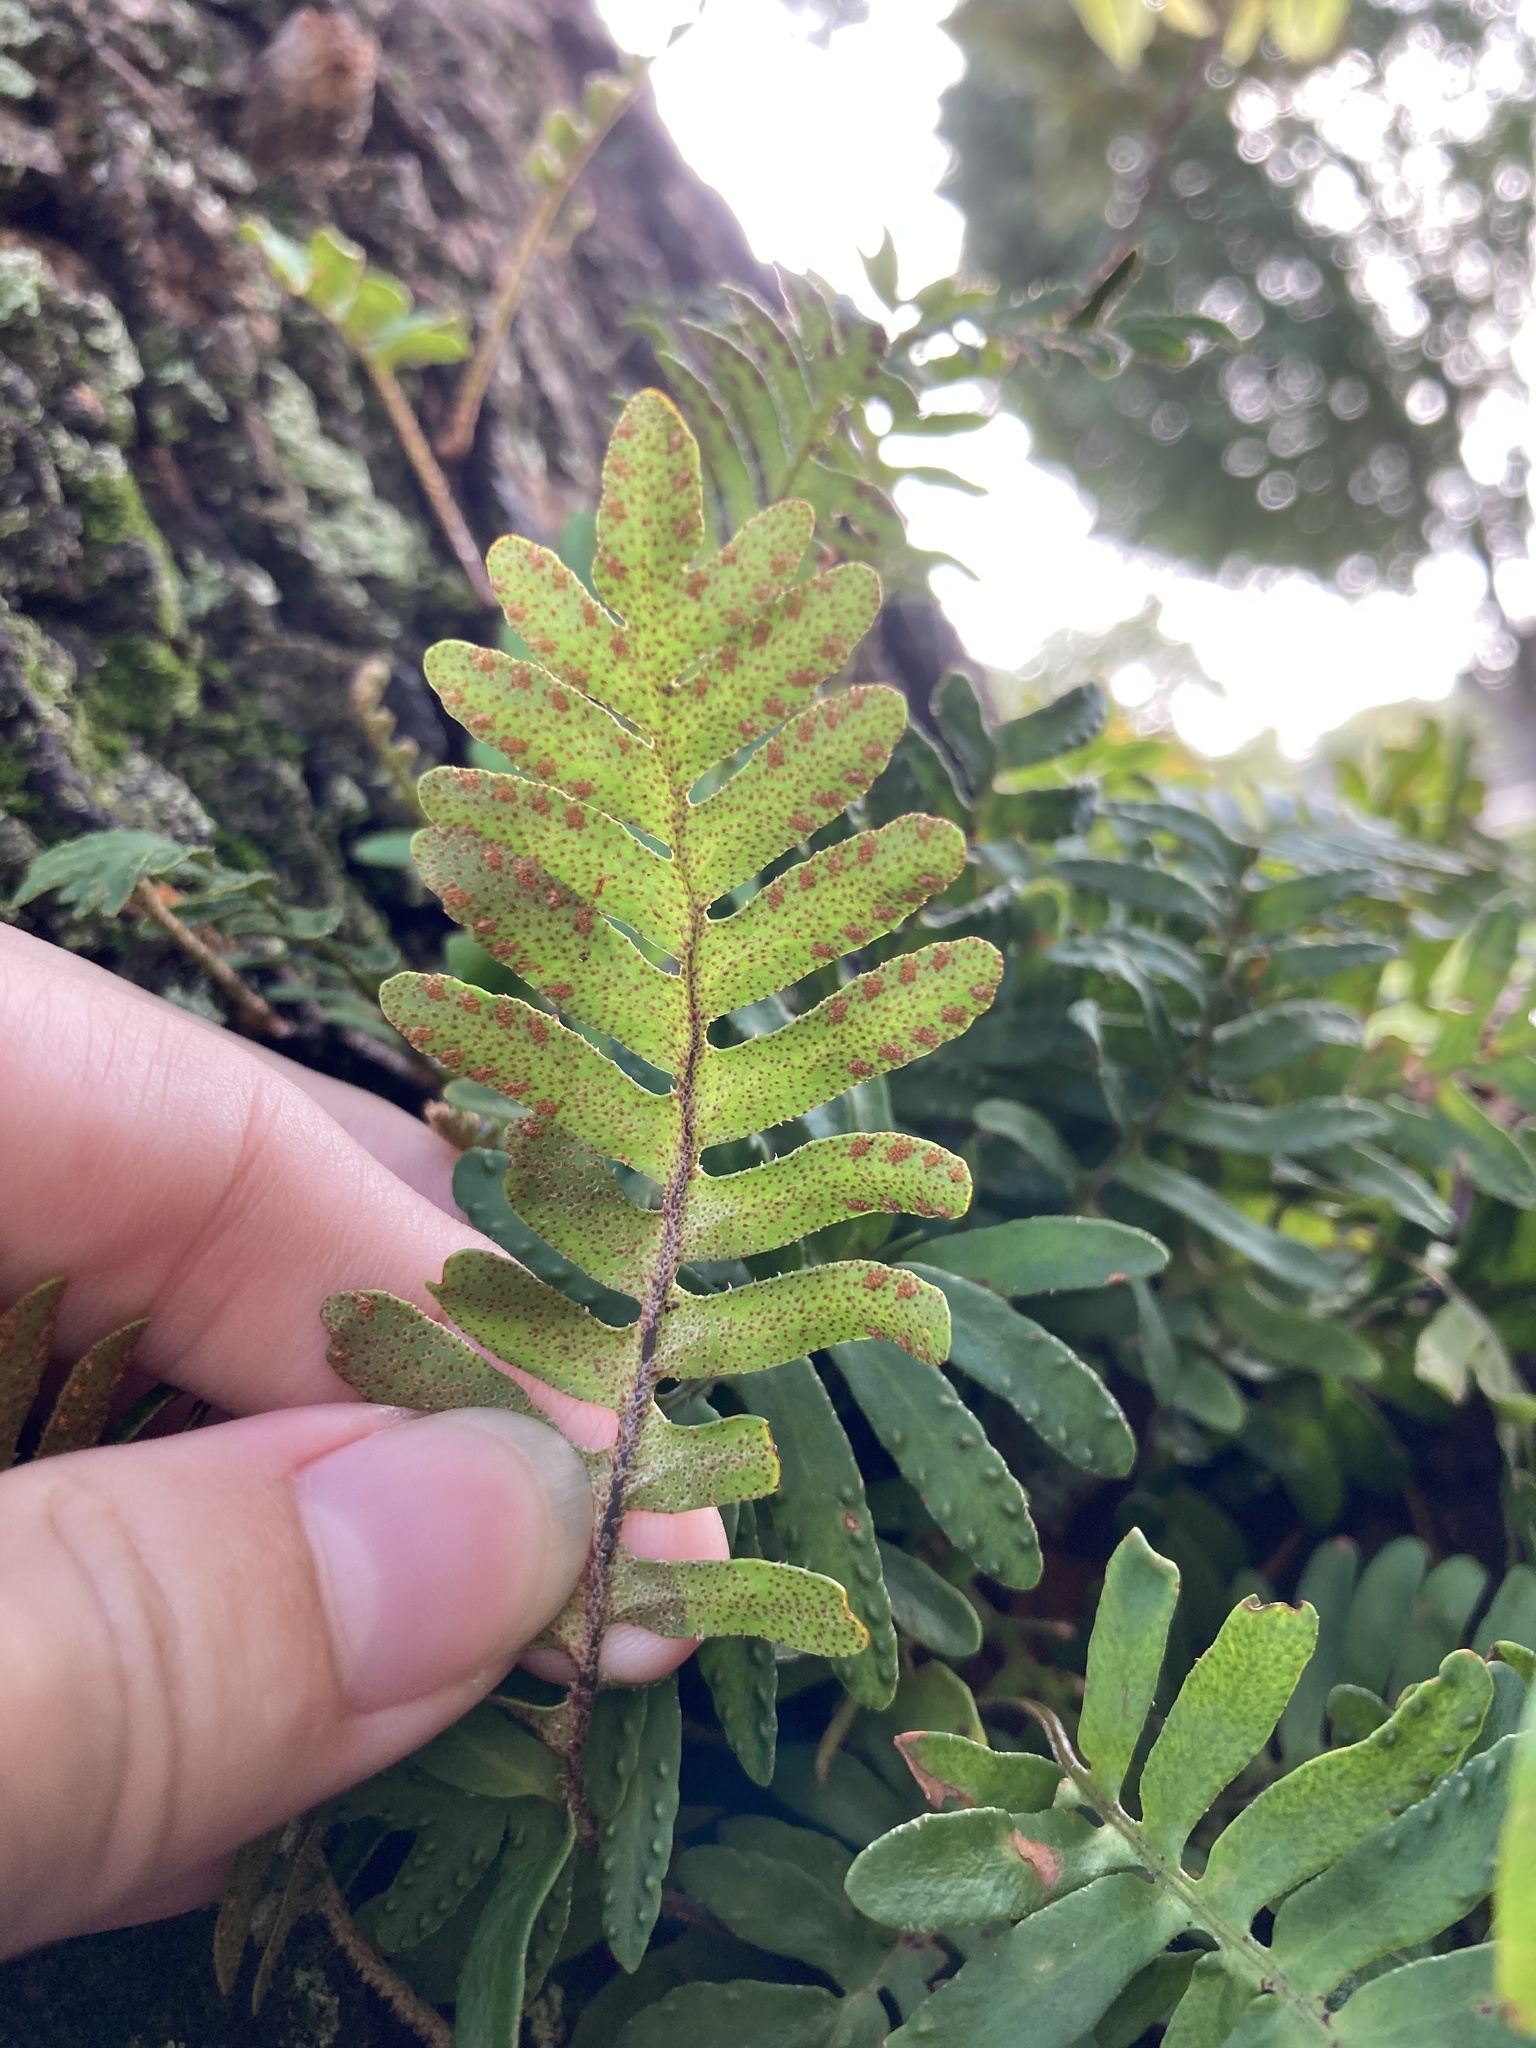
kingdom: Plantae
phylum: Tracheophyta
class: Polypodiopsida
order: Polypodiales
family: Polypodiaceae
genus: Pleopeltis
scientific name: Pleopeltis michauxiana
